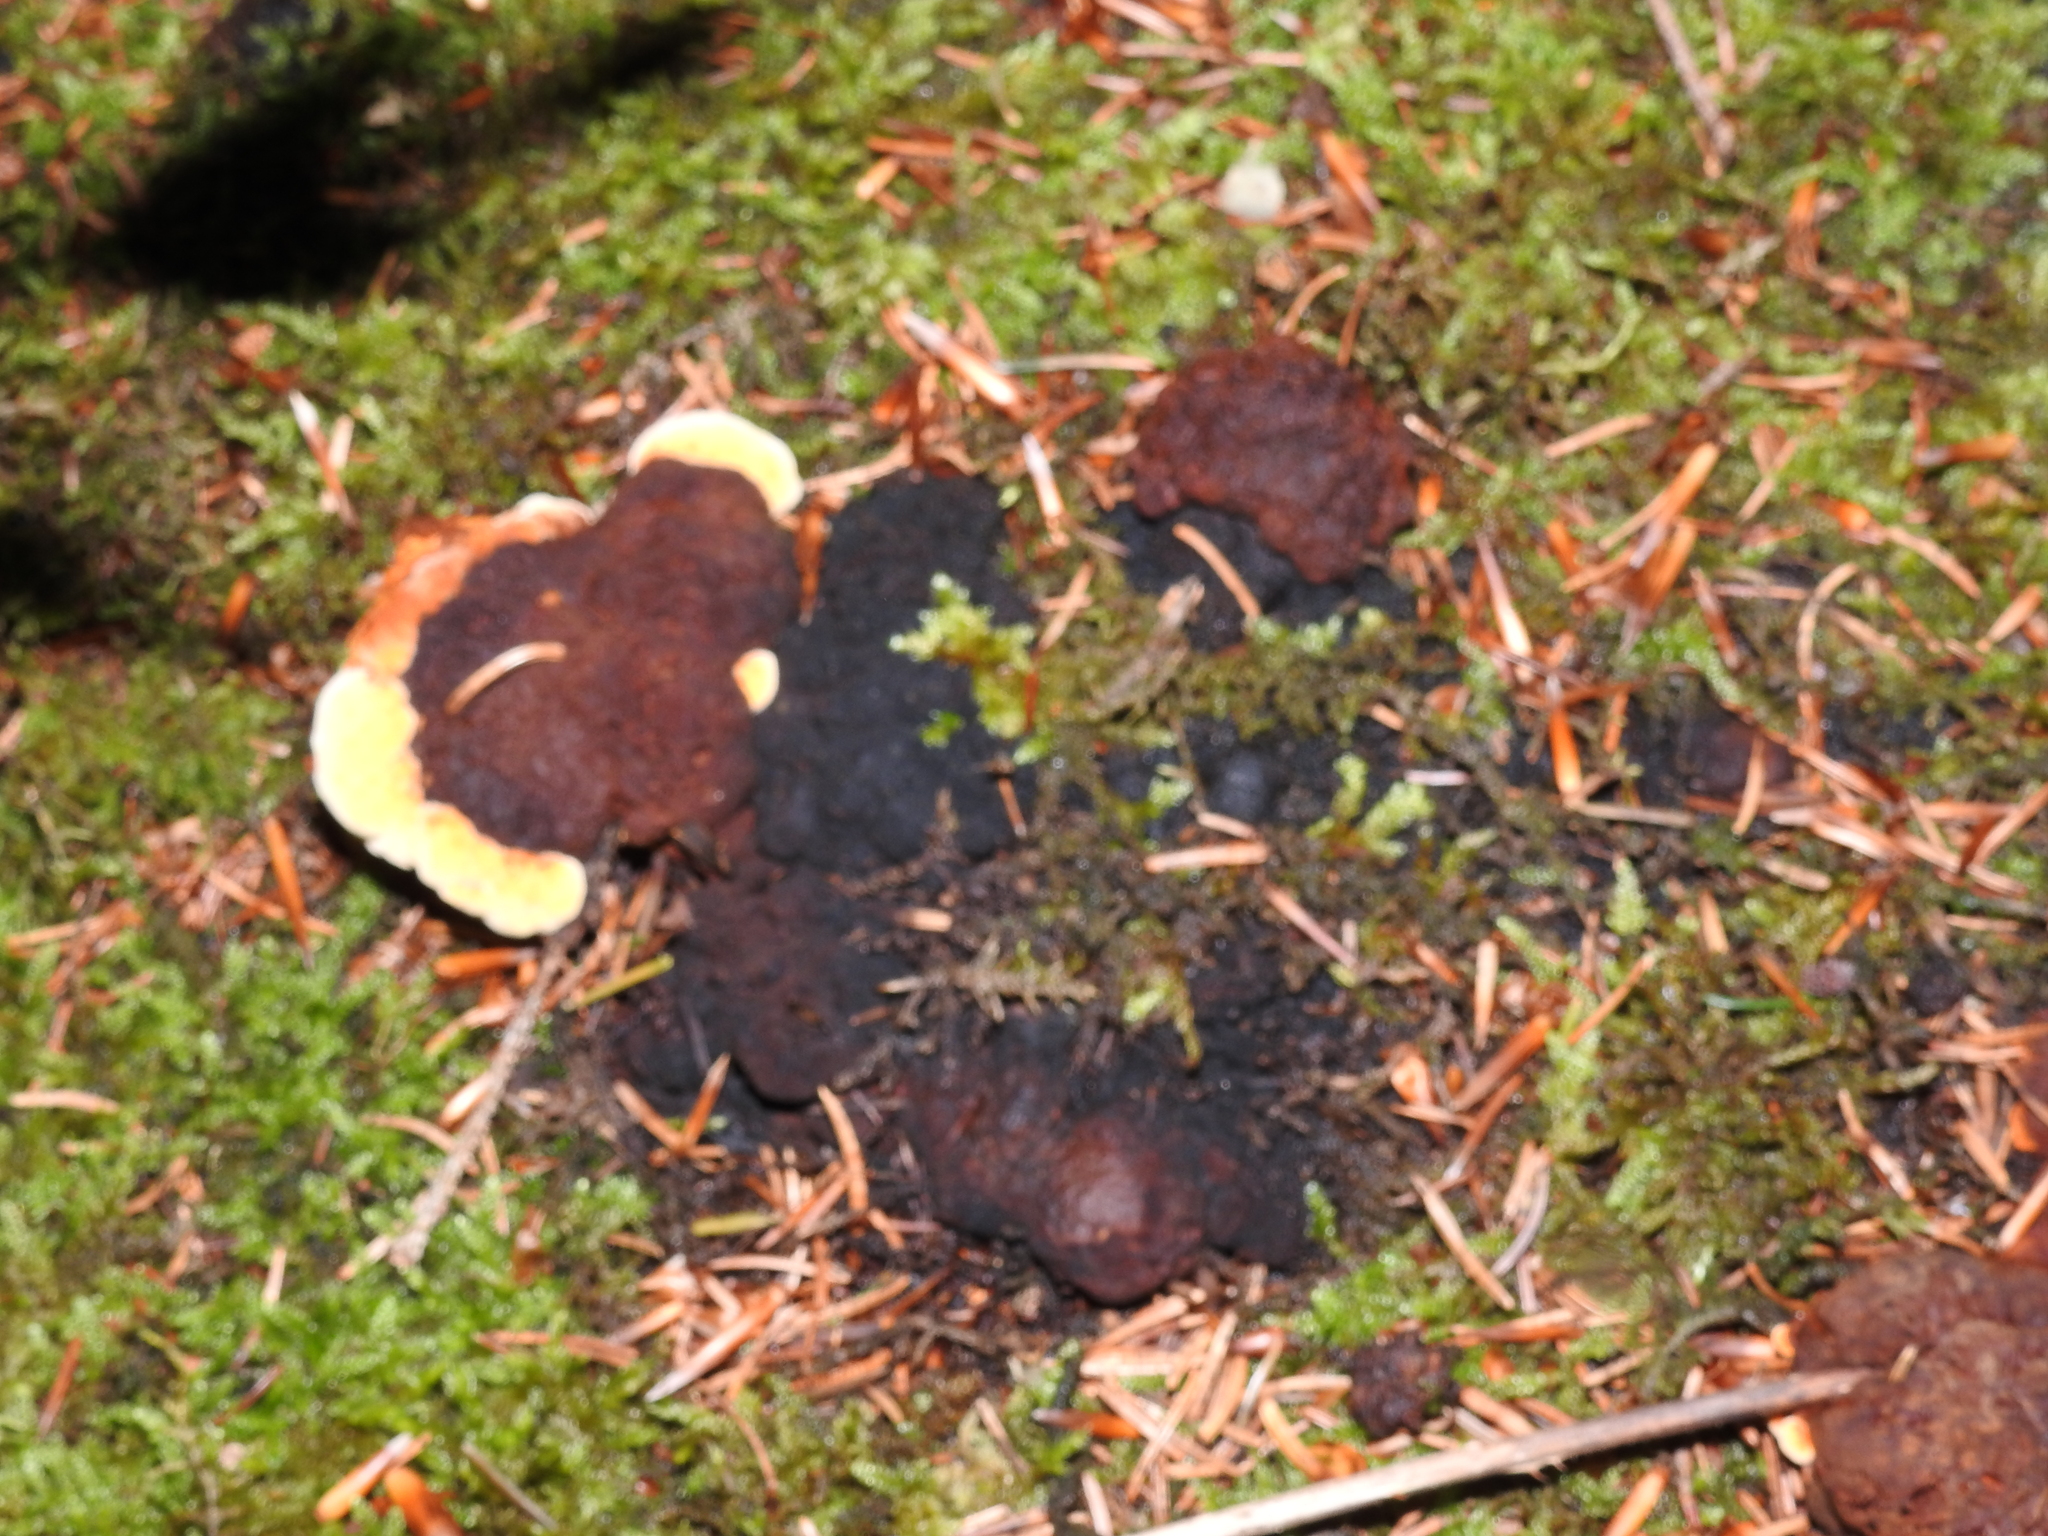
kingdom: Fungi
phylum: Basidiomycota
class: Agaricomycetes
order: Gloeophyllales
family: Gloeophyllaceae
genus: Gloeophyllum
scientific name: Gloeophyllum odoratum
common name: Anise mazegill
